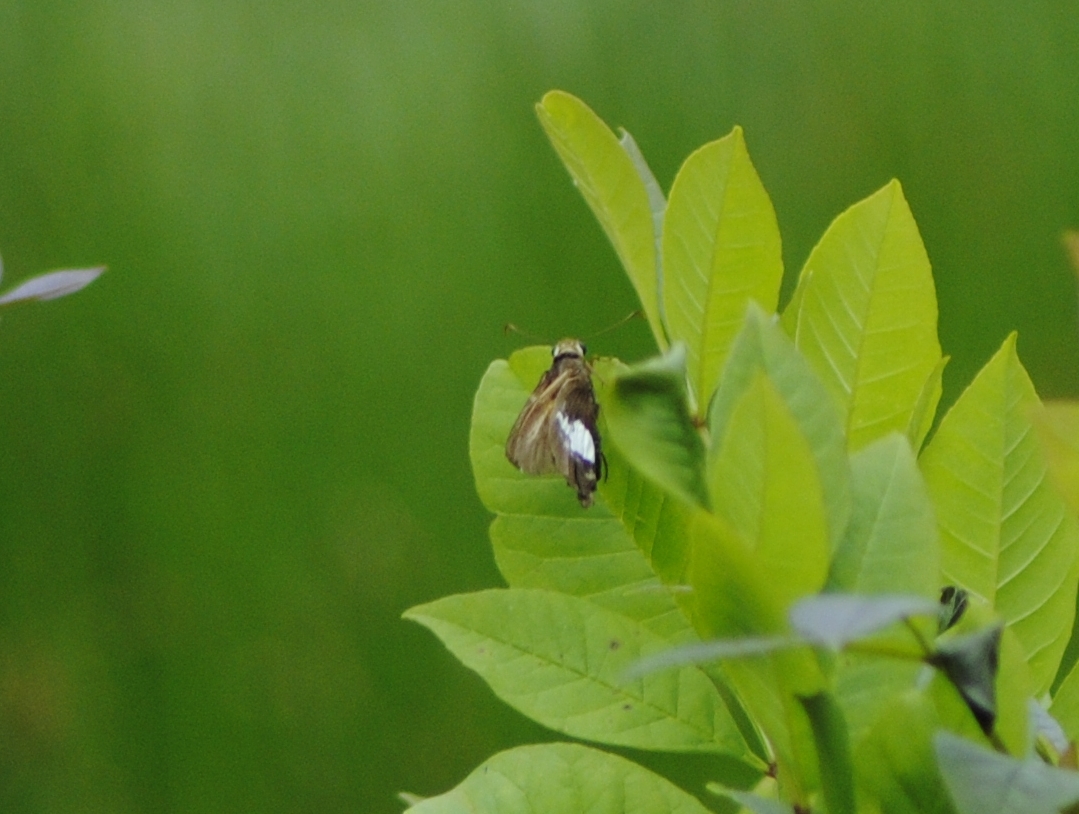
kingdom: Animalia
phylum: Arthropoda
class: Insecta
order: Lepidoptera
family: Hesperiidae
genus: Epargyreus
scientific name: Epargyreus clarus
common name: Silver-spotted skipper
